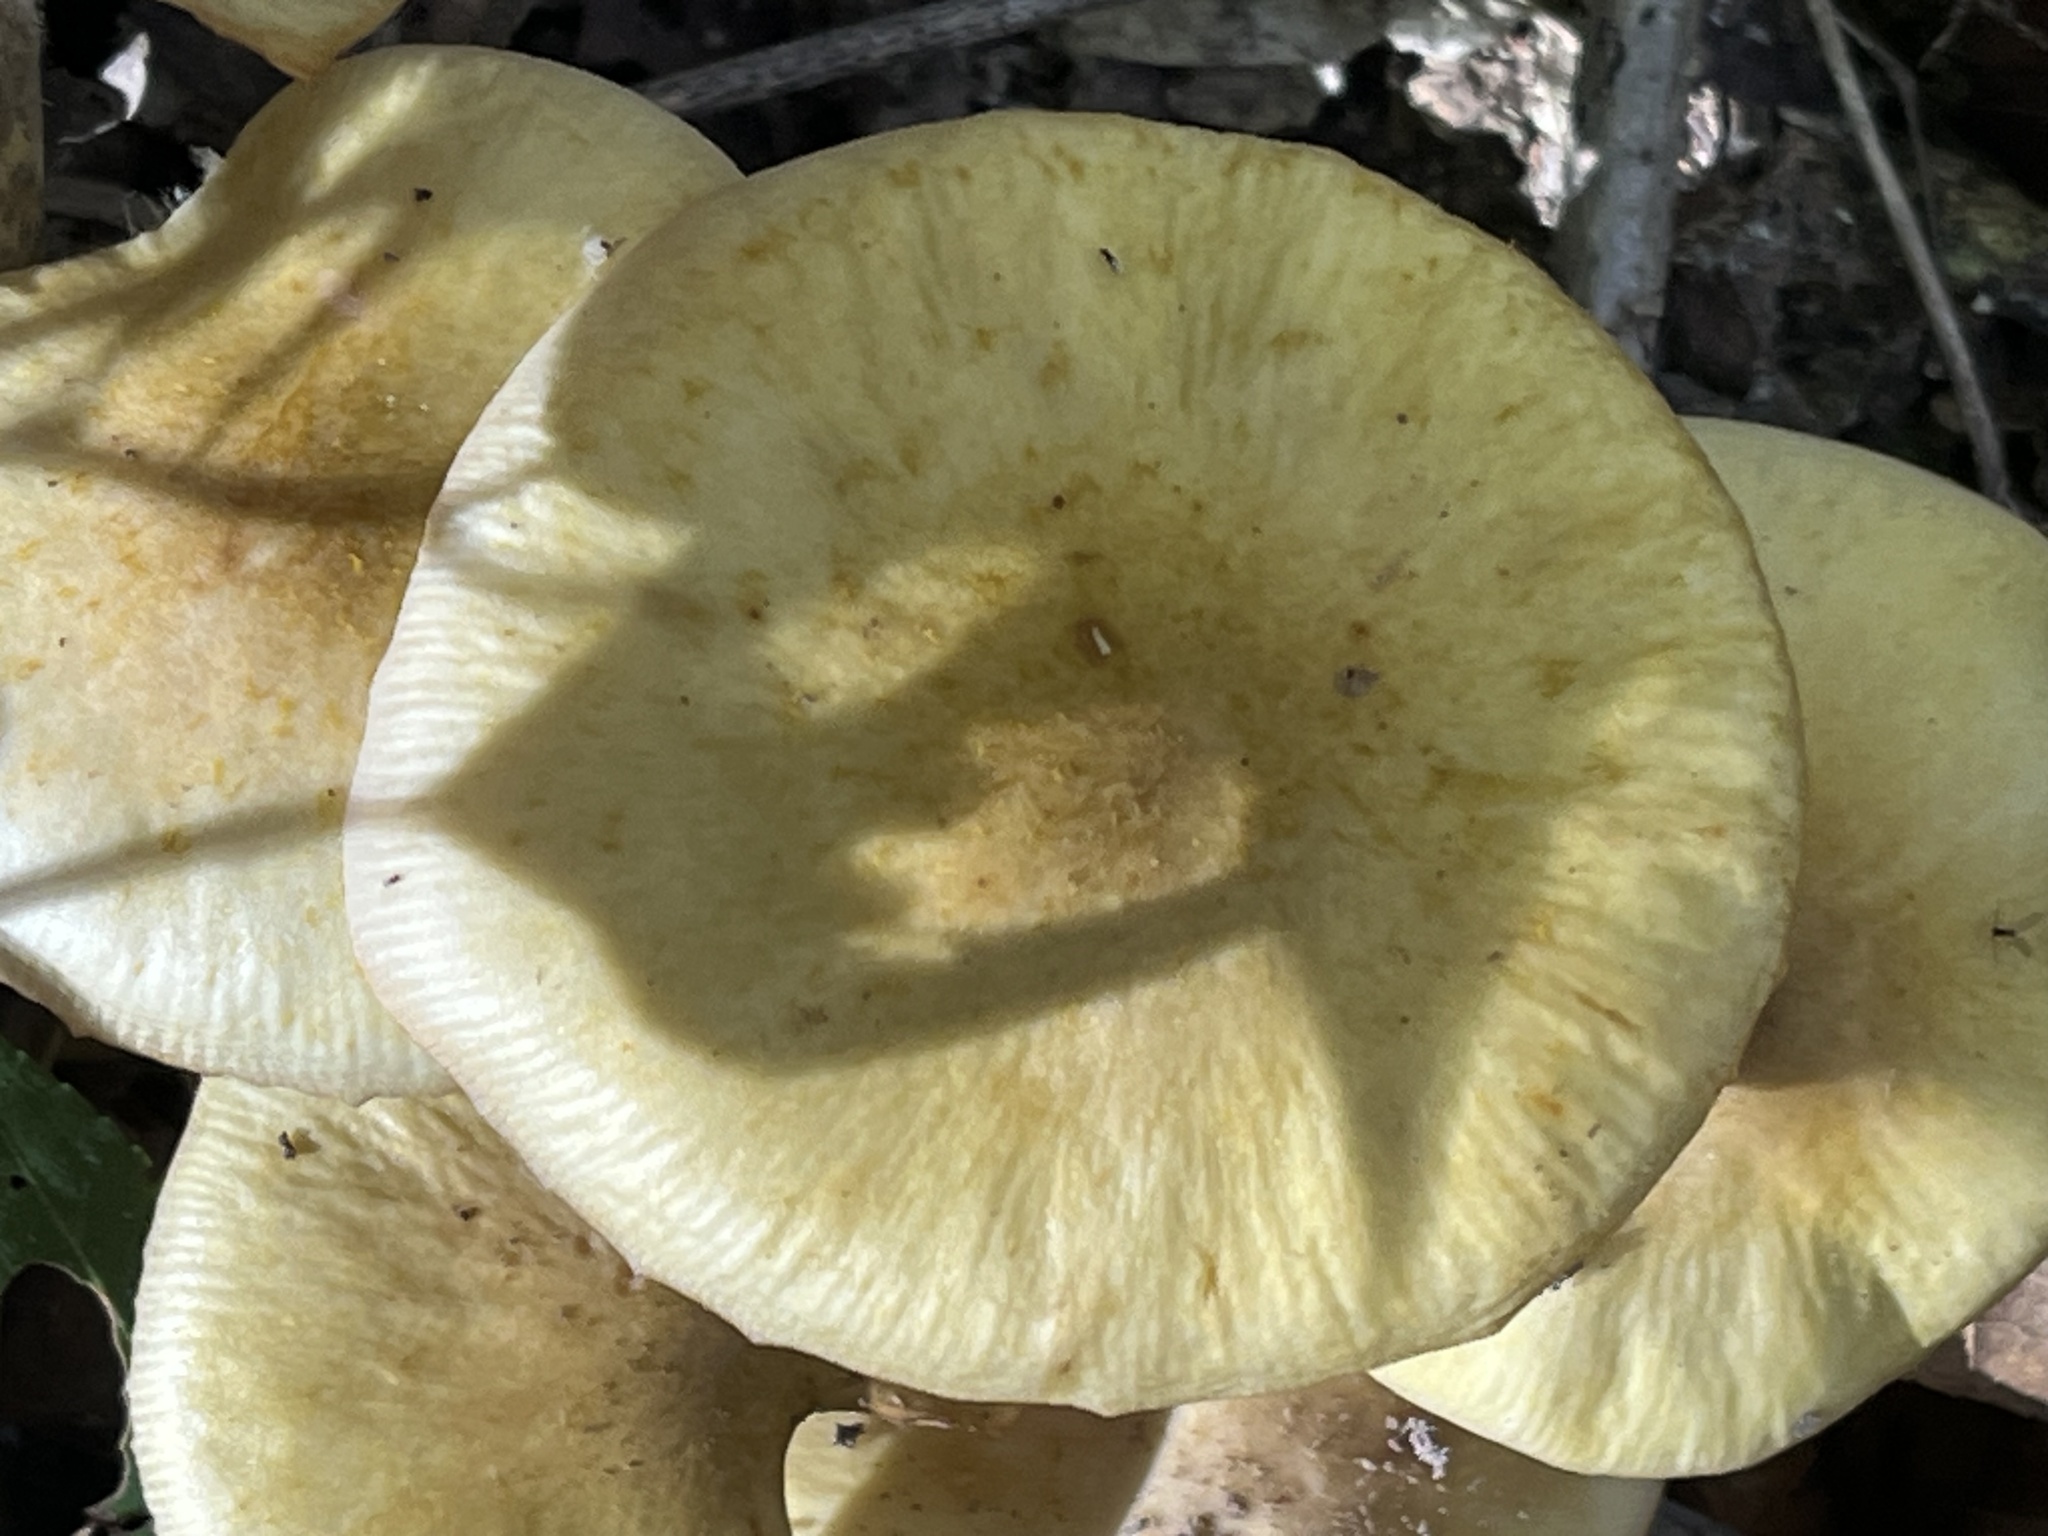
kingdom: Fungi
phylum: Basidiomycota
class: Agaricomycetes
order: Agaricales
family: Physalacriaceae
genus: Armillaria
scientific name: Armillaria mellea
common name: Honey fungus
